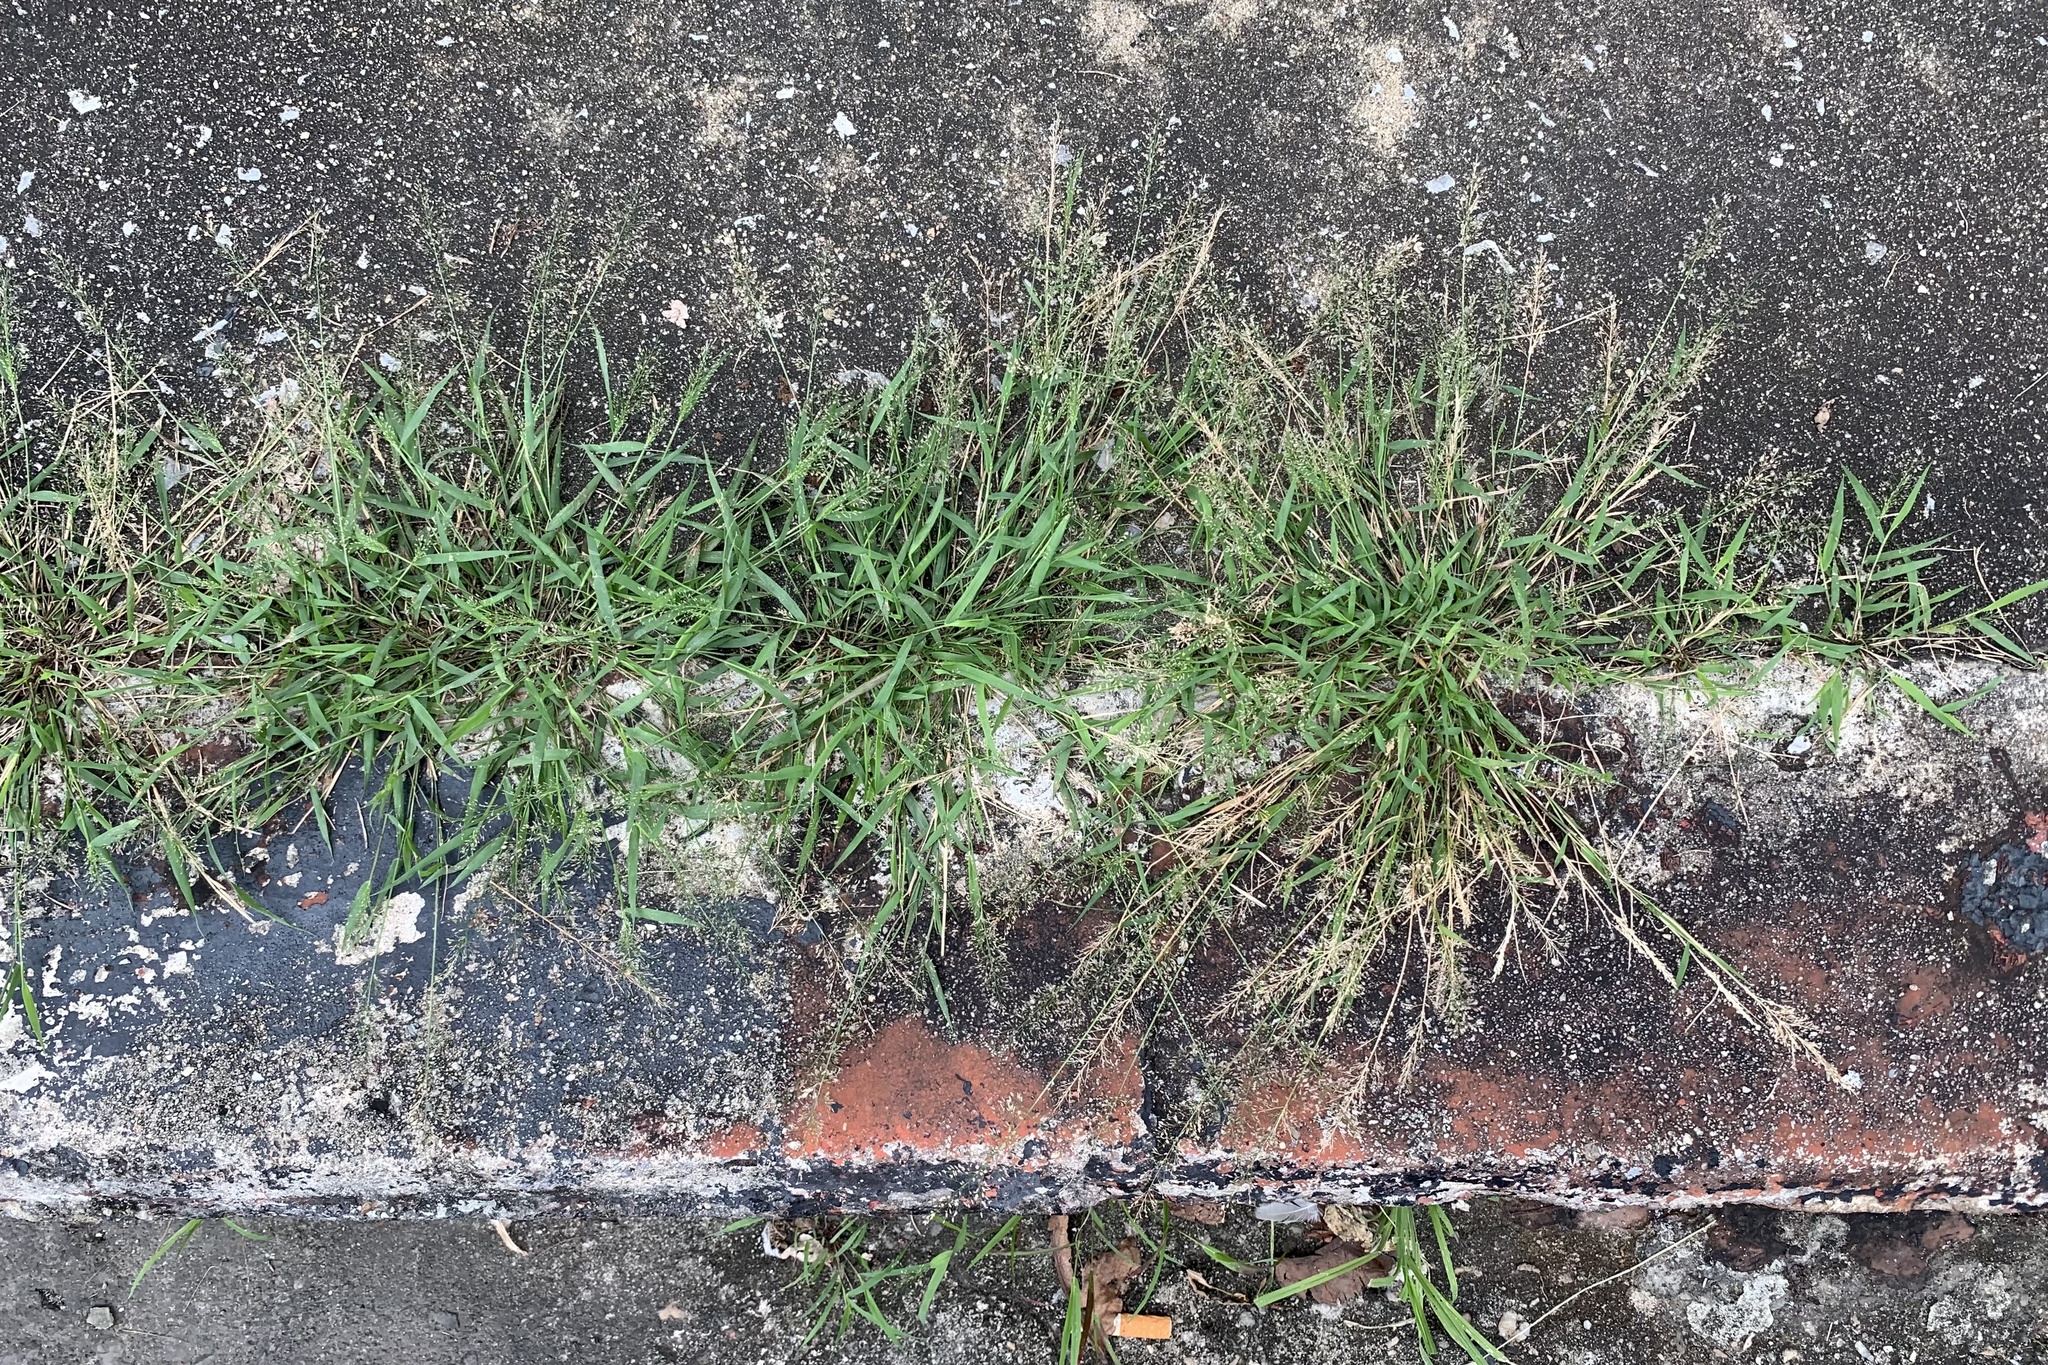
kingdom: Plantae
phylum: Tracheophyta
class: Liliopsida
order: Poales
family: Poaceae
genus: Eragrostis
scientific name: Eragrostis tenella
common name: Japanese lovegrass
